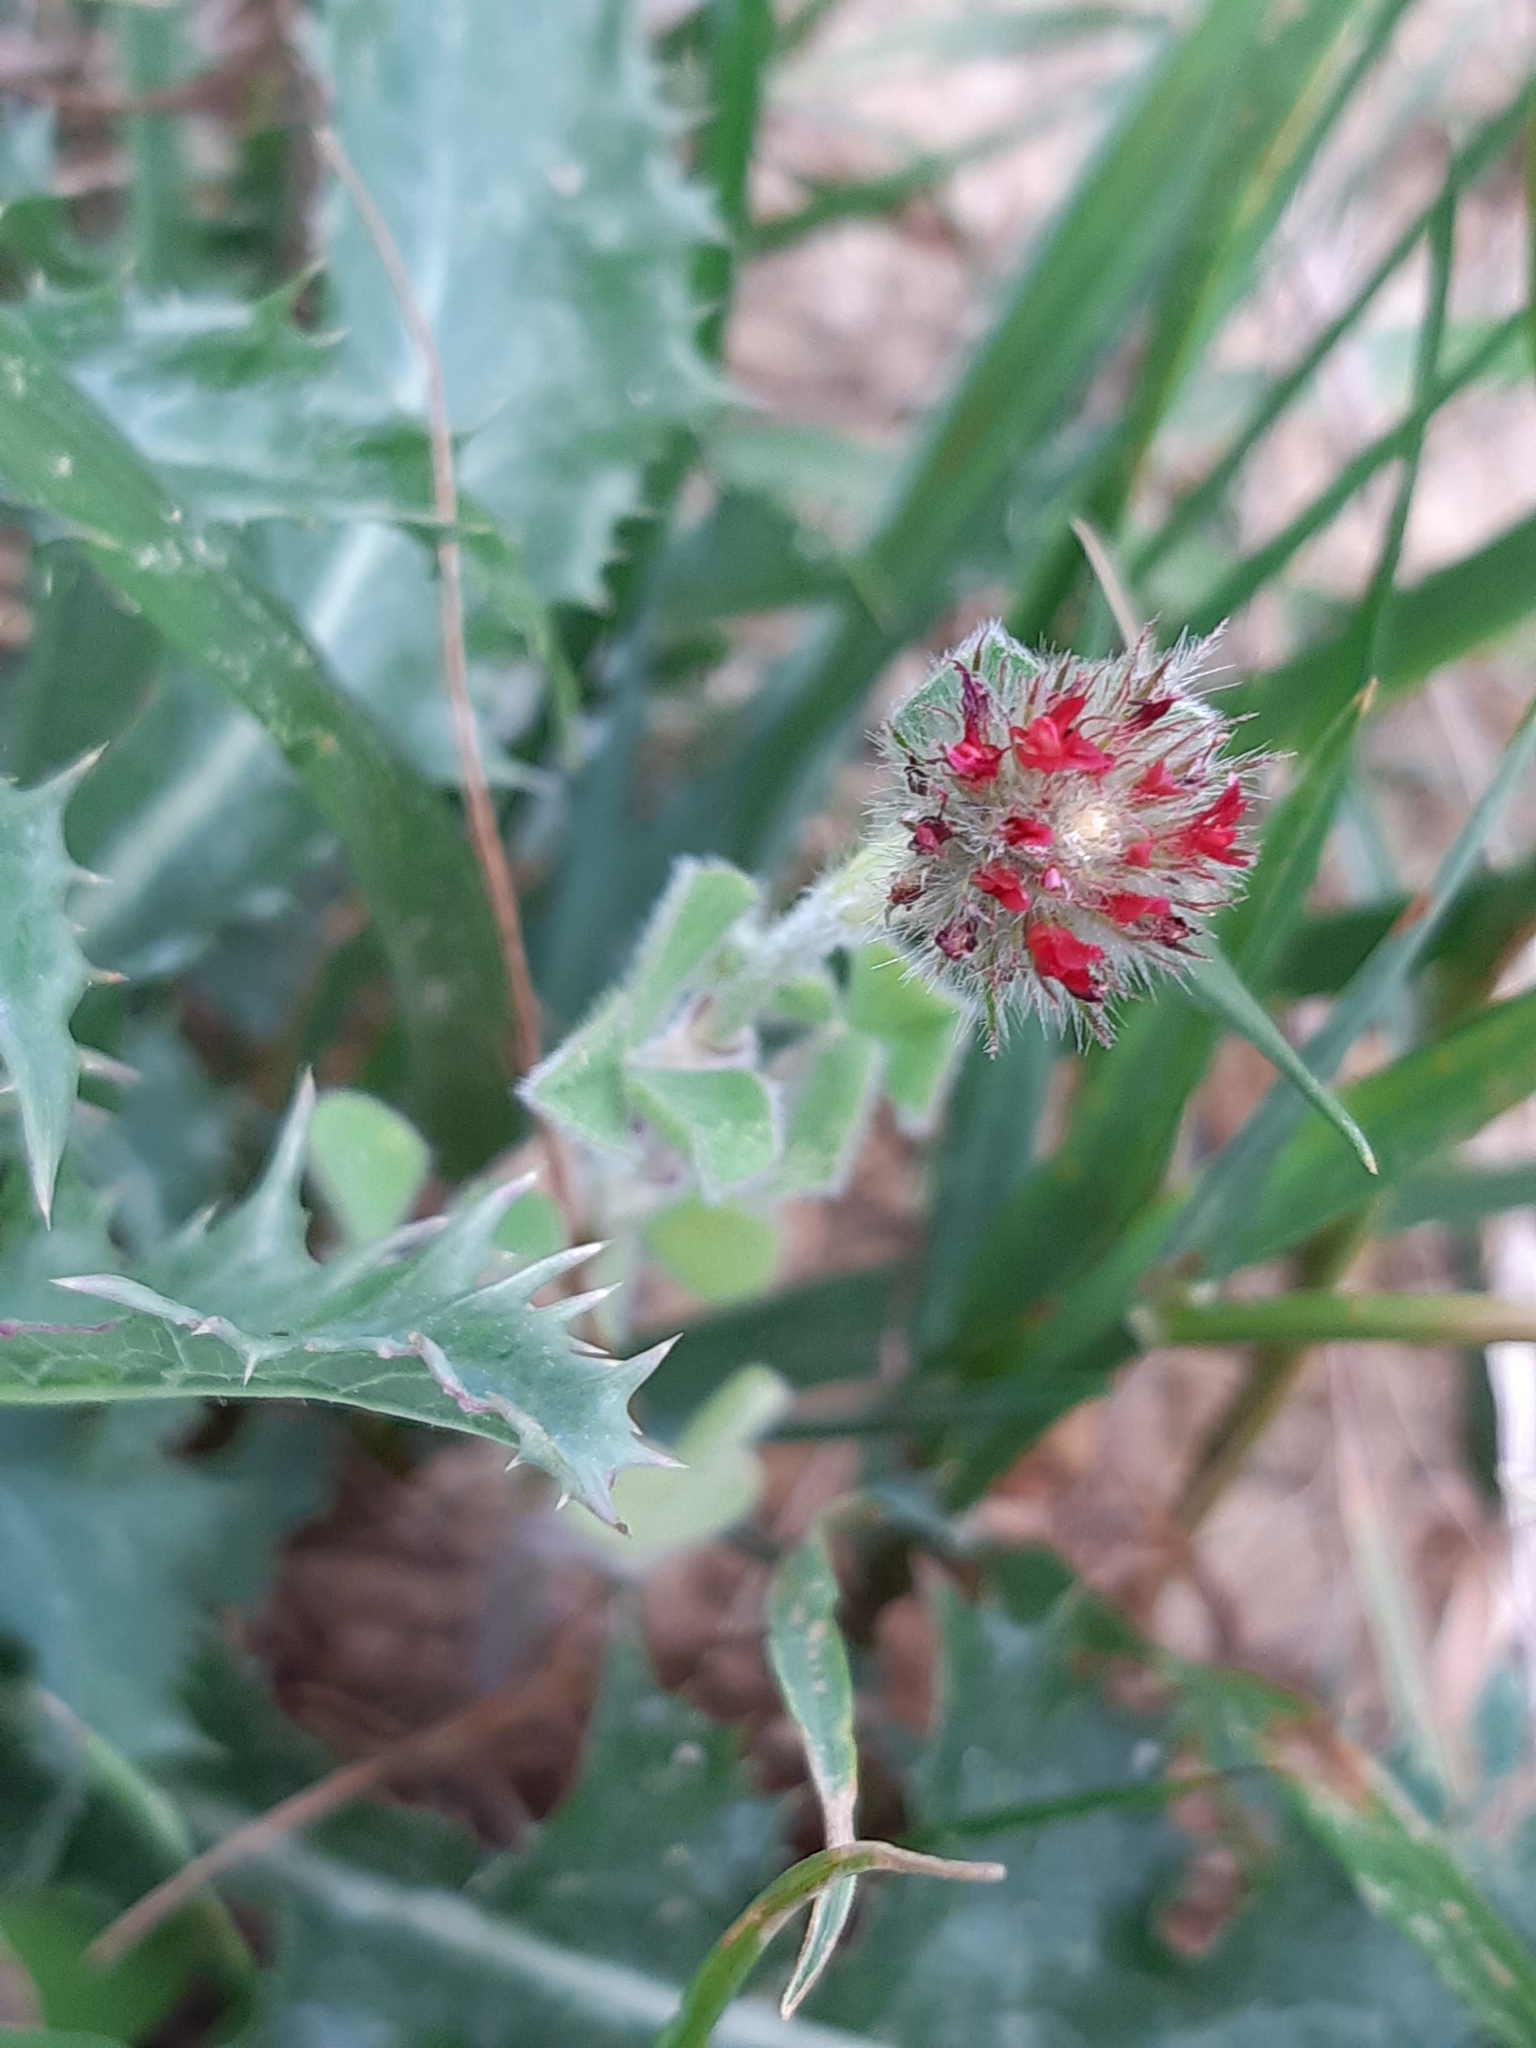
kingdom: Plantae
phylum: Tracheophyta
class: Magnoliopsida
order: Fabales
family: Fabaceae
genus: Trifolium
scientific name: Trifolium incarnatum
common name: Crimson clover
